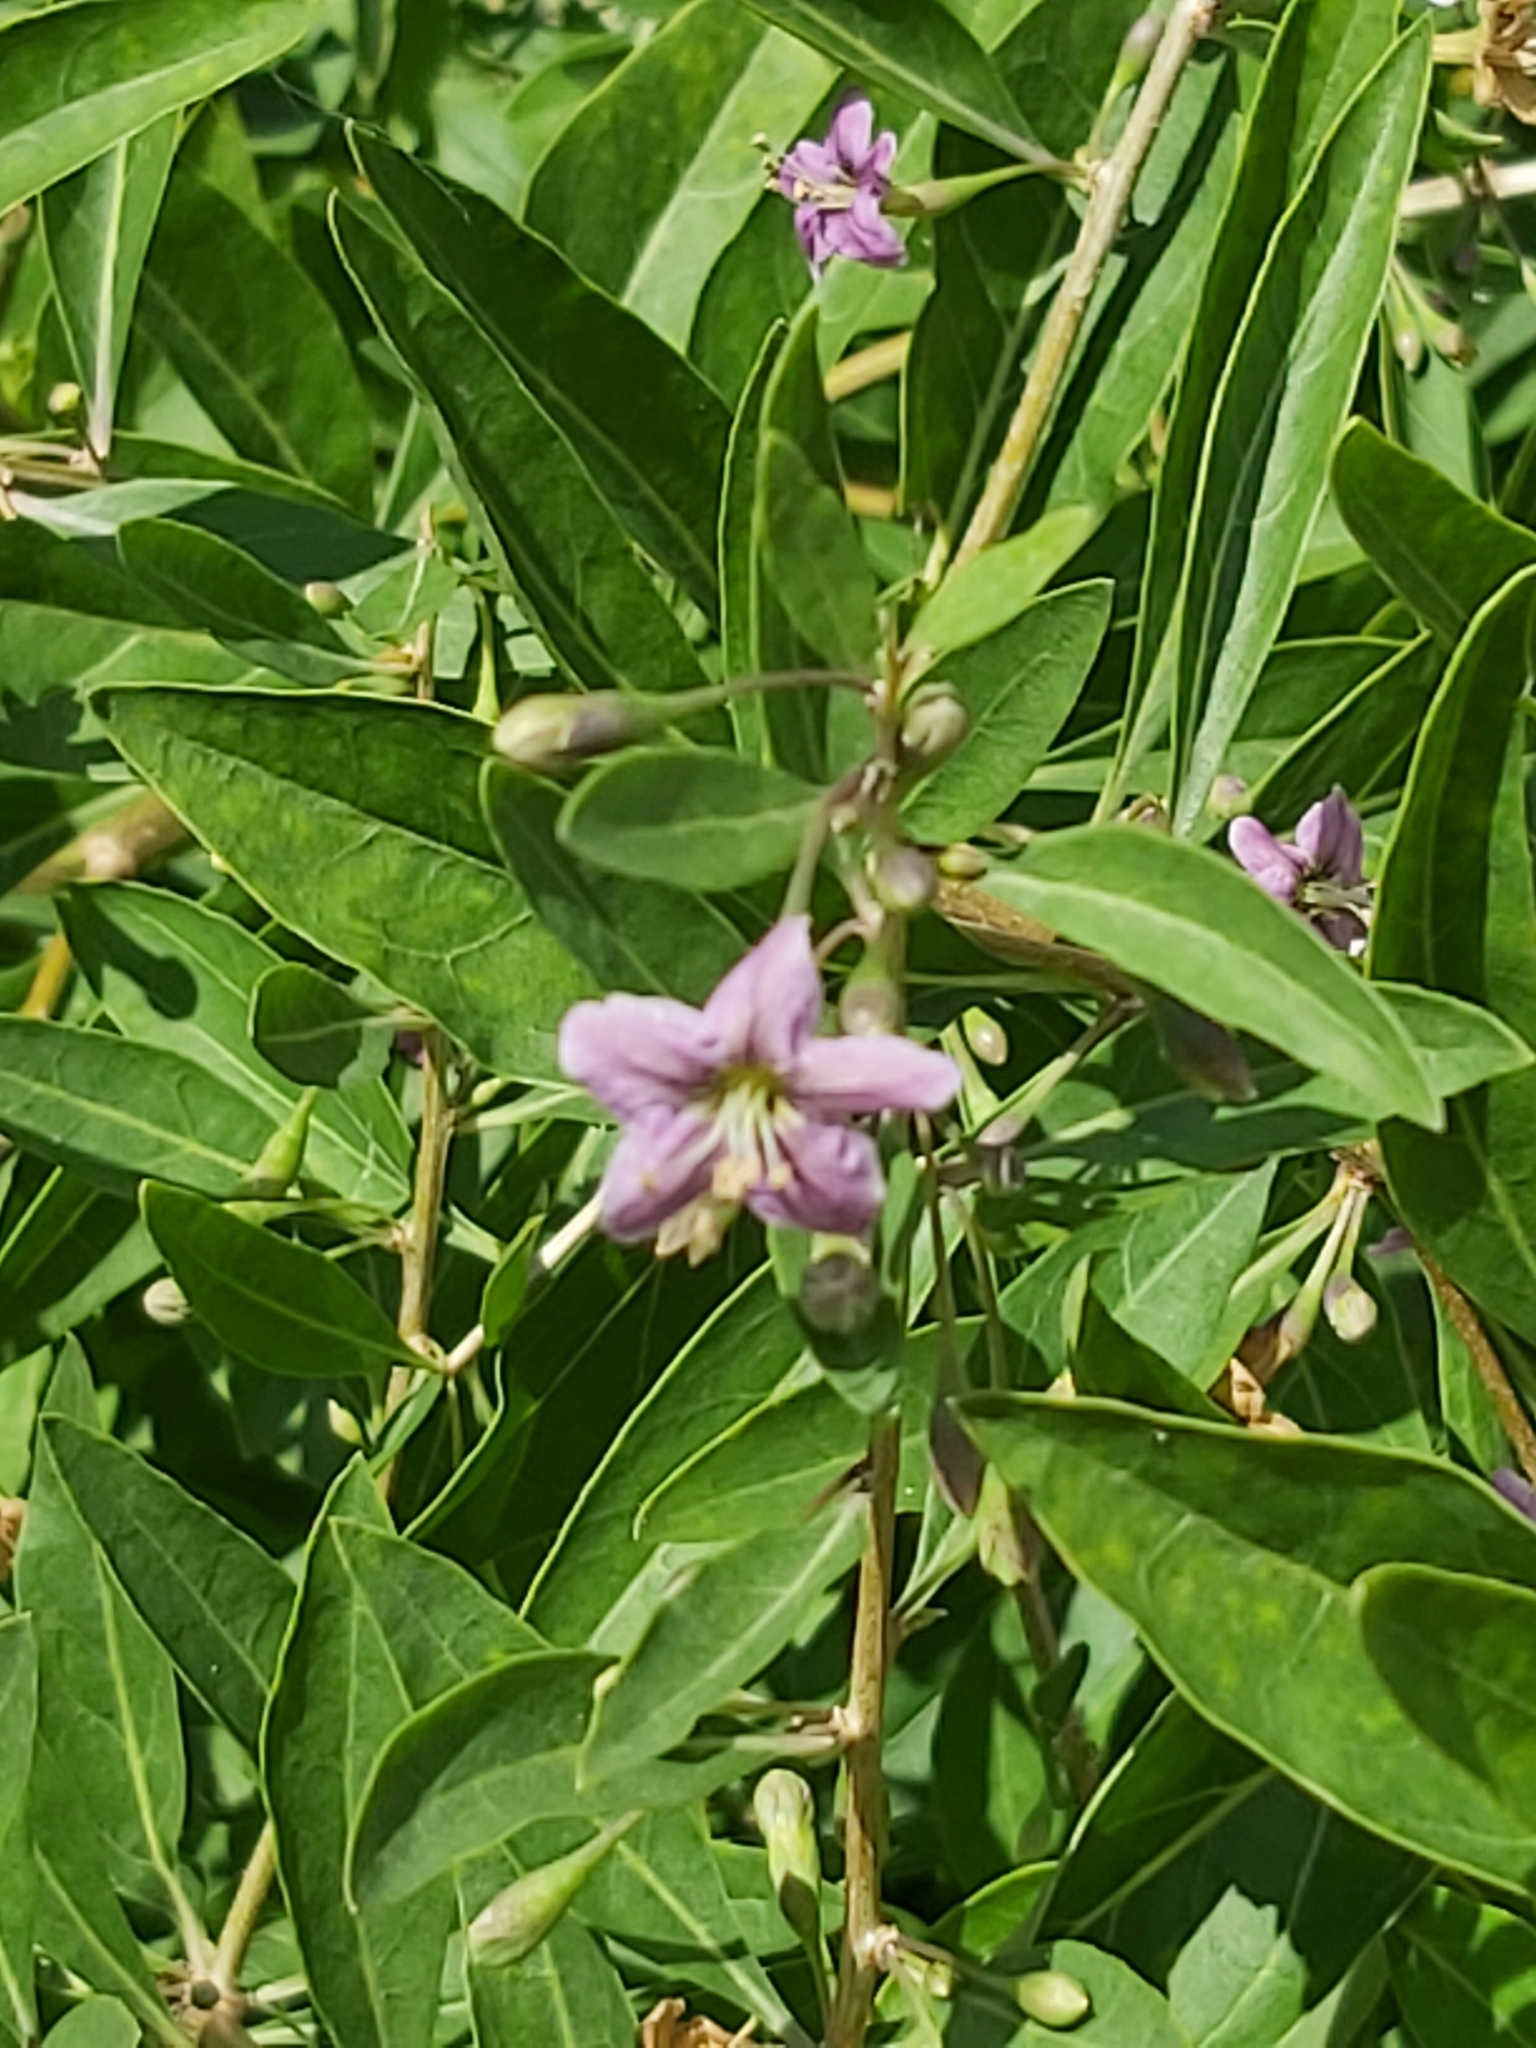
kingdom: Plantae
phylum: Tracheophyta
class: Magnoliopsida
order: Solanales
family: Solanaceae
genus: Lycium
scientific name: Lycium barbarum
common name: Duke of argyll's teaplant
